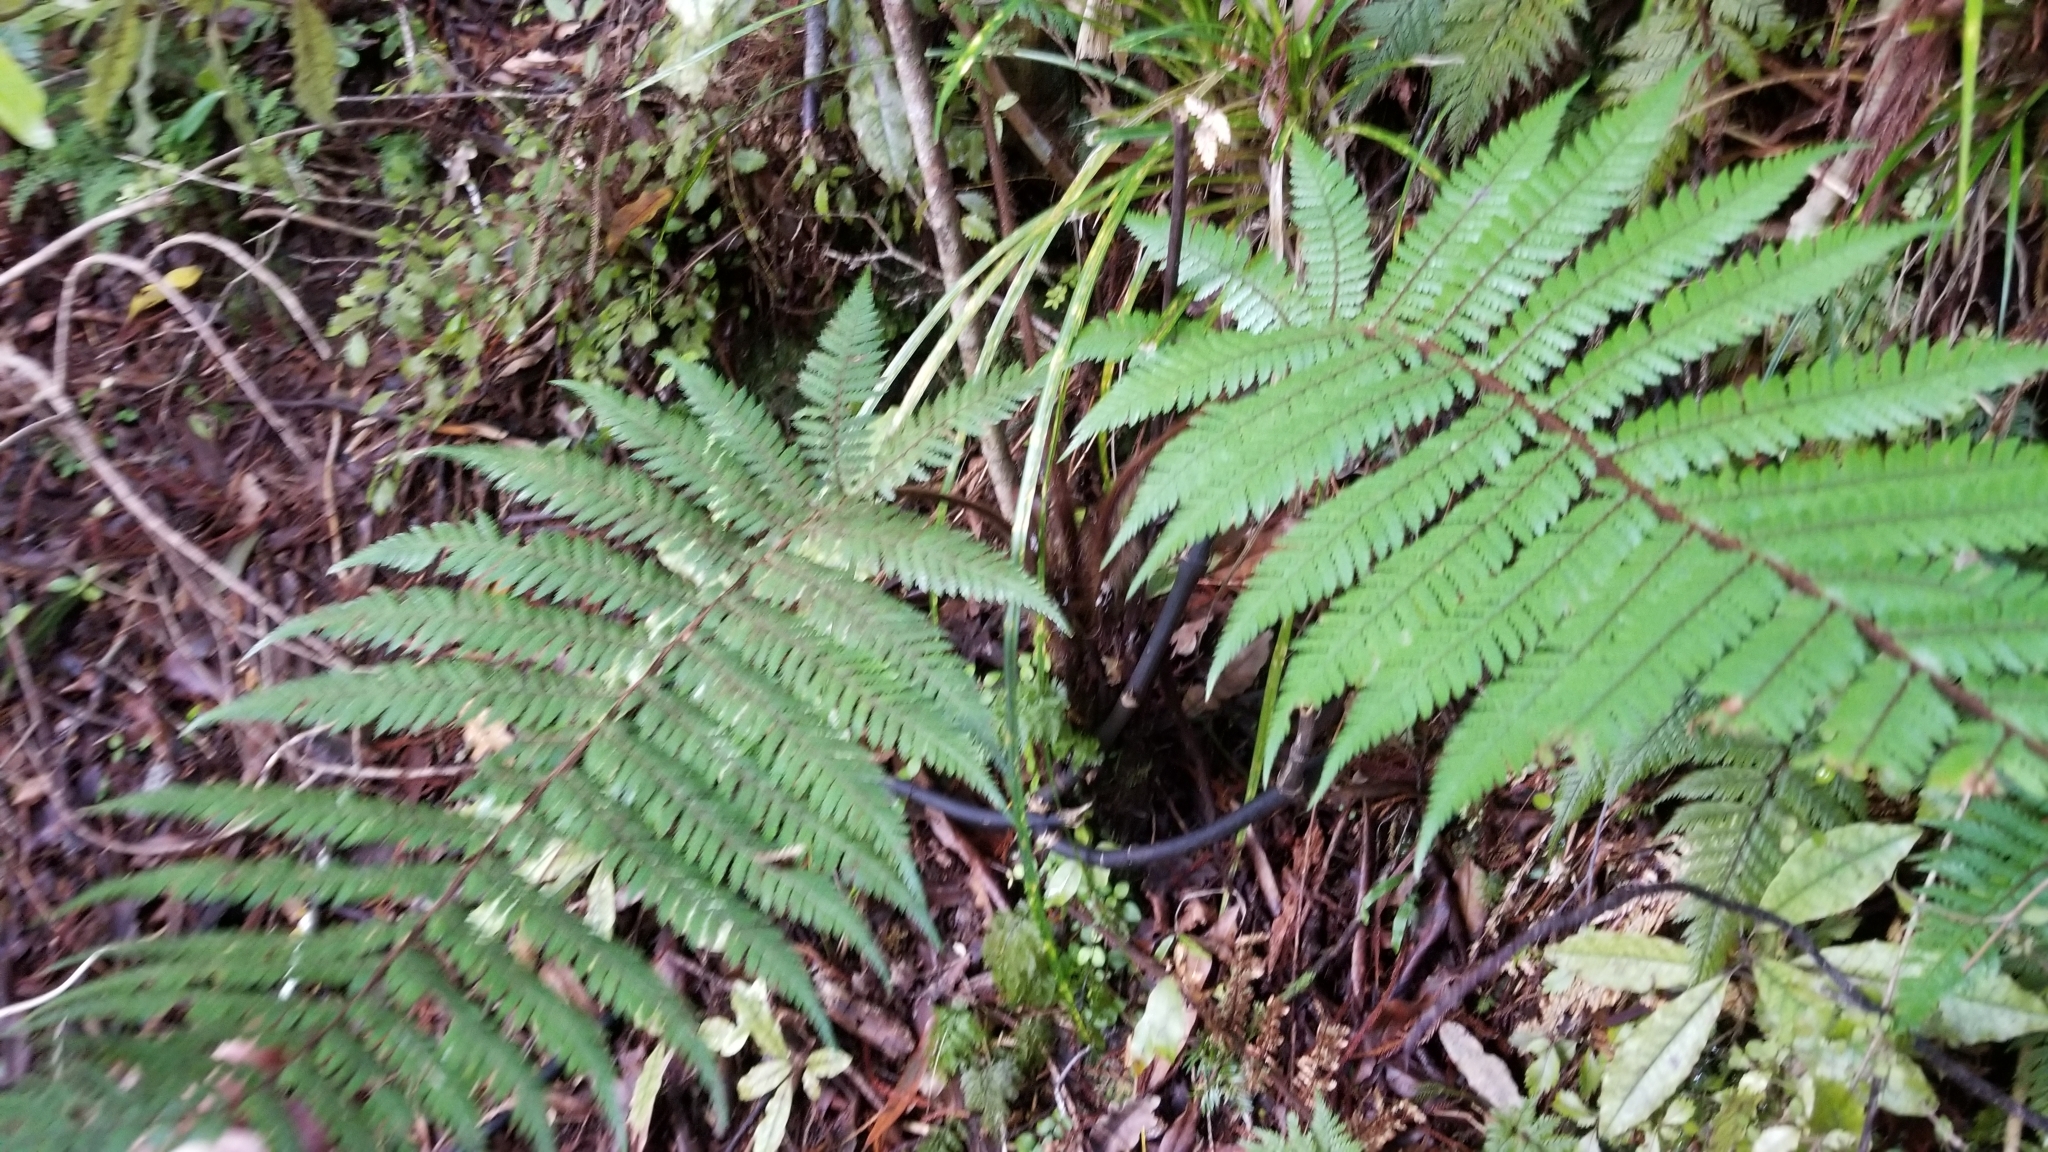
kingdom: Plantae
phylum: Tracheophyta
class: Polypodiopsida
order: Cyatheales
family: Dicksoniaceae
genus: Dicksonia
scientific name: Dicksonia squarrosa
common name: Hard treefern
